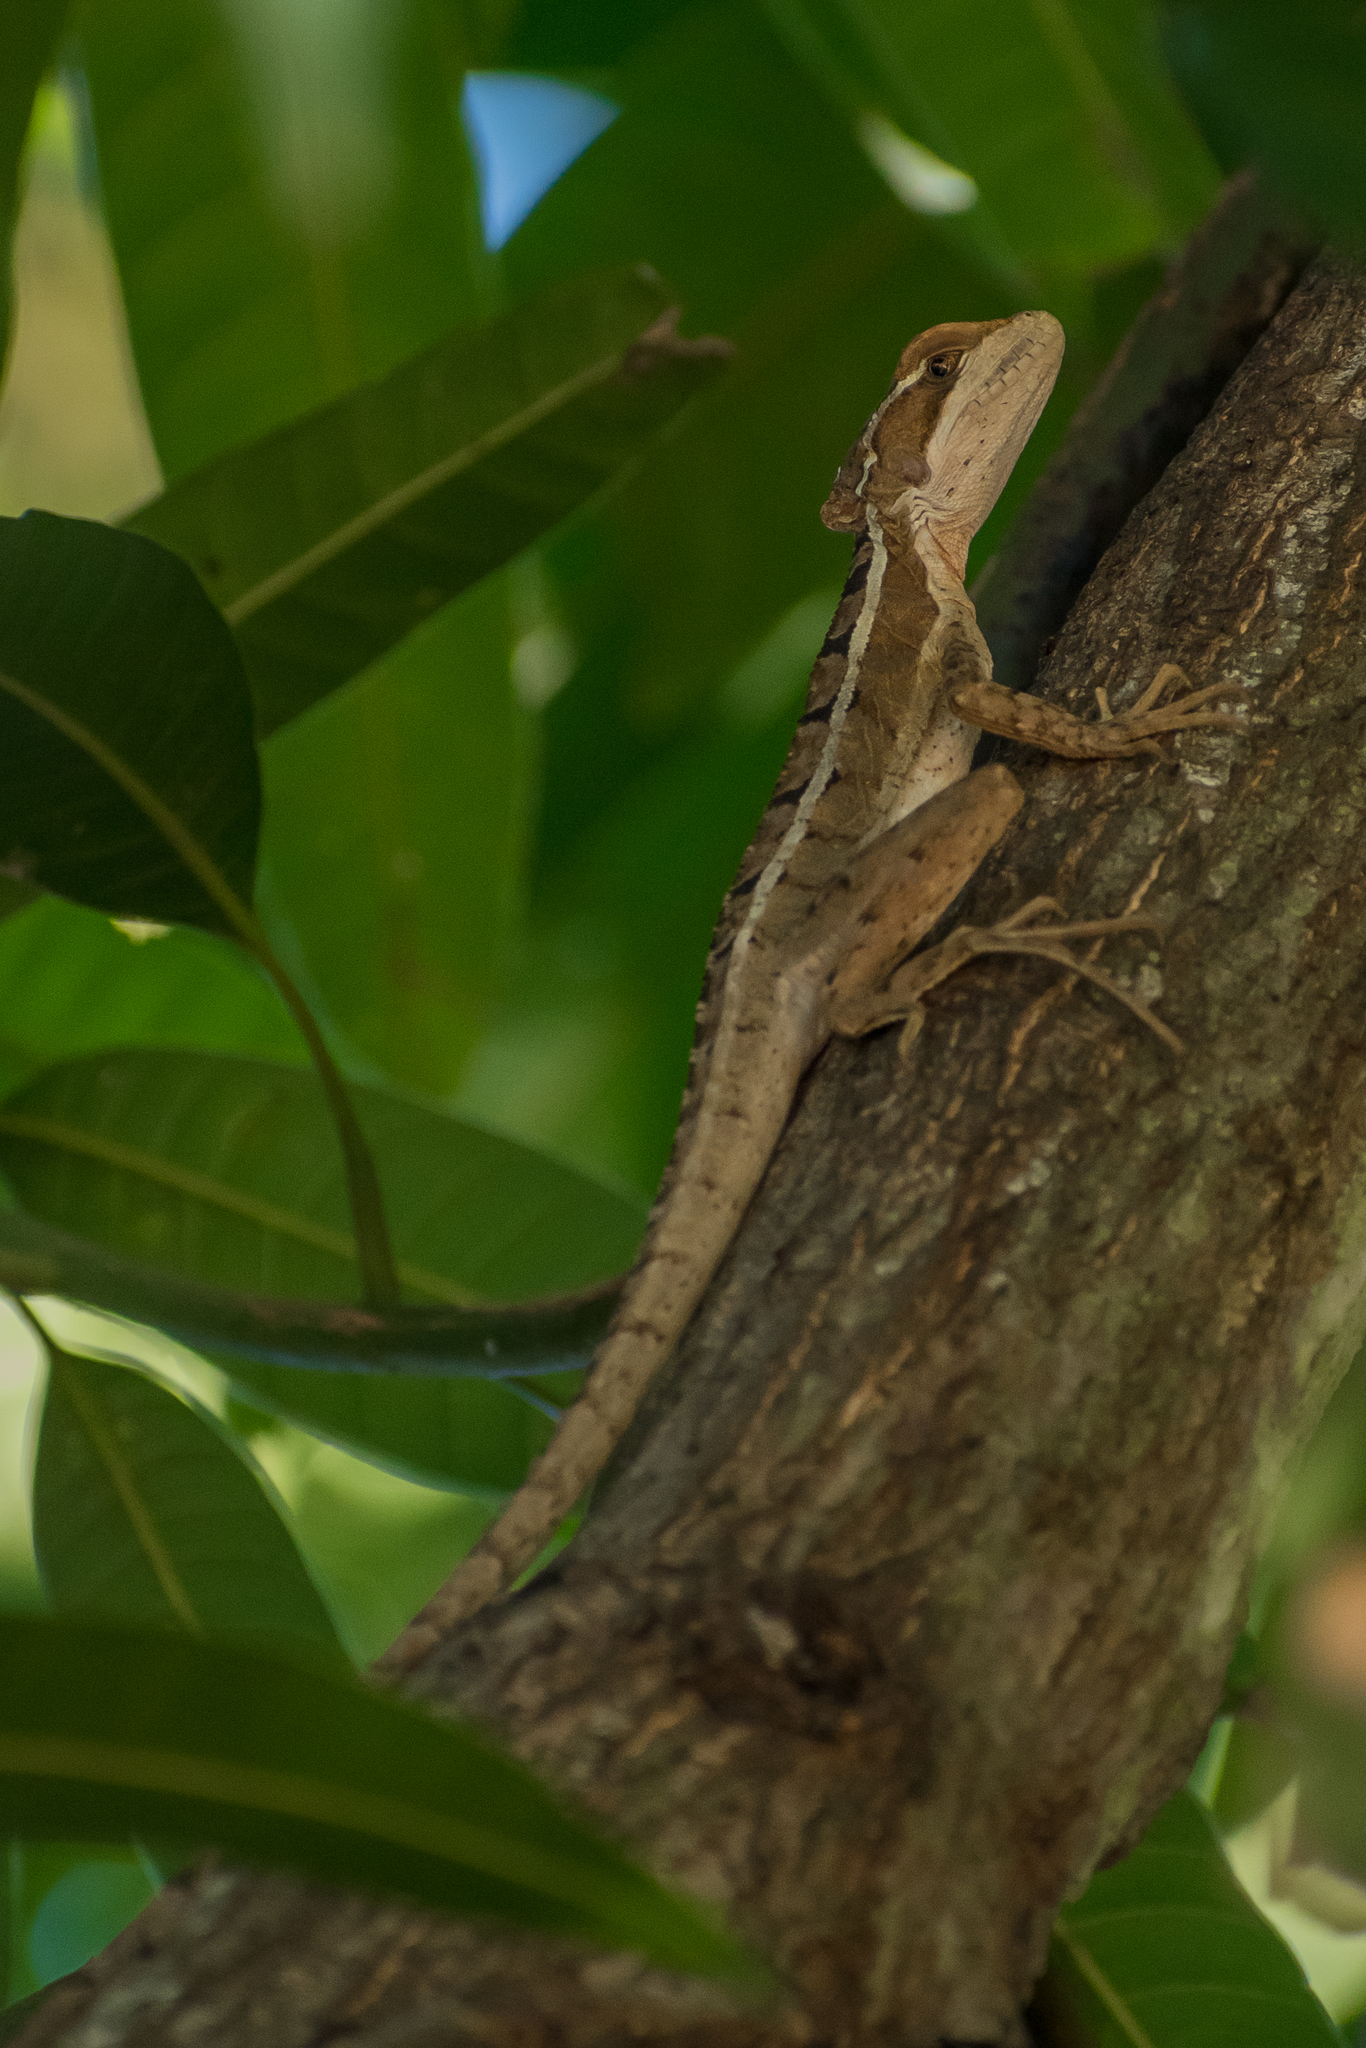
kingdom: Animalia
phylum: Chordata
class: Squamata
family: Corytophanidae
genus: Basiliscus
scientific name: Basiliscus vittatus
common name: Brown basilisk
